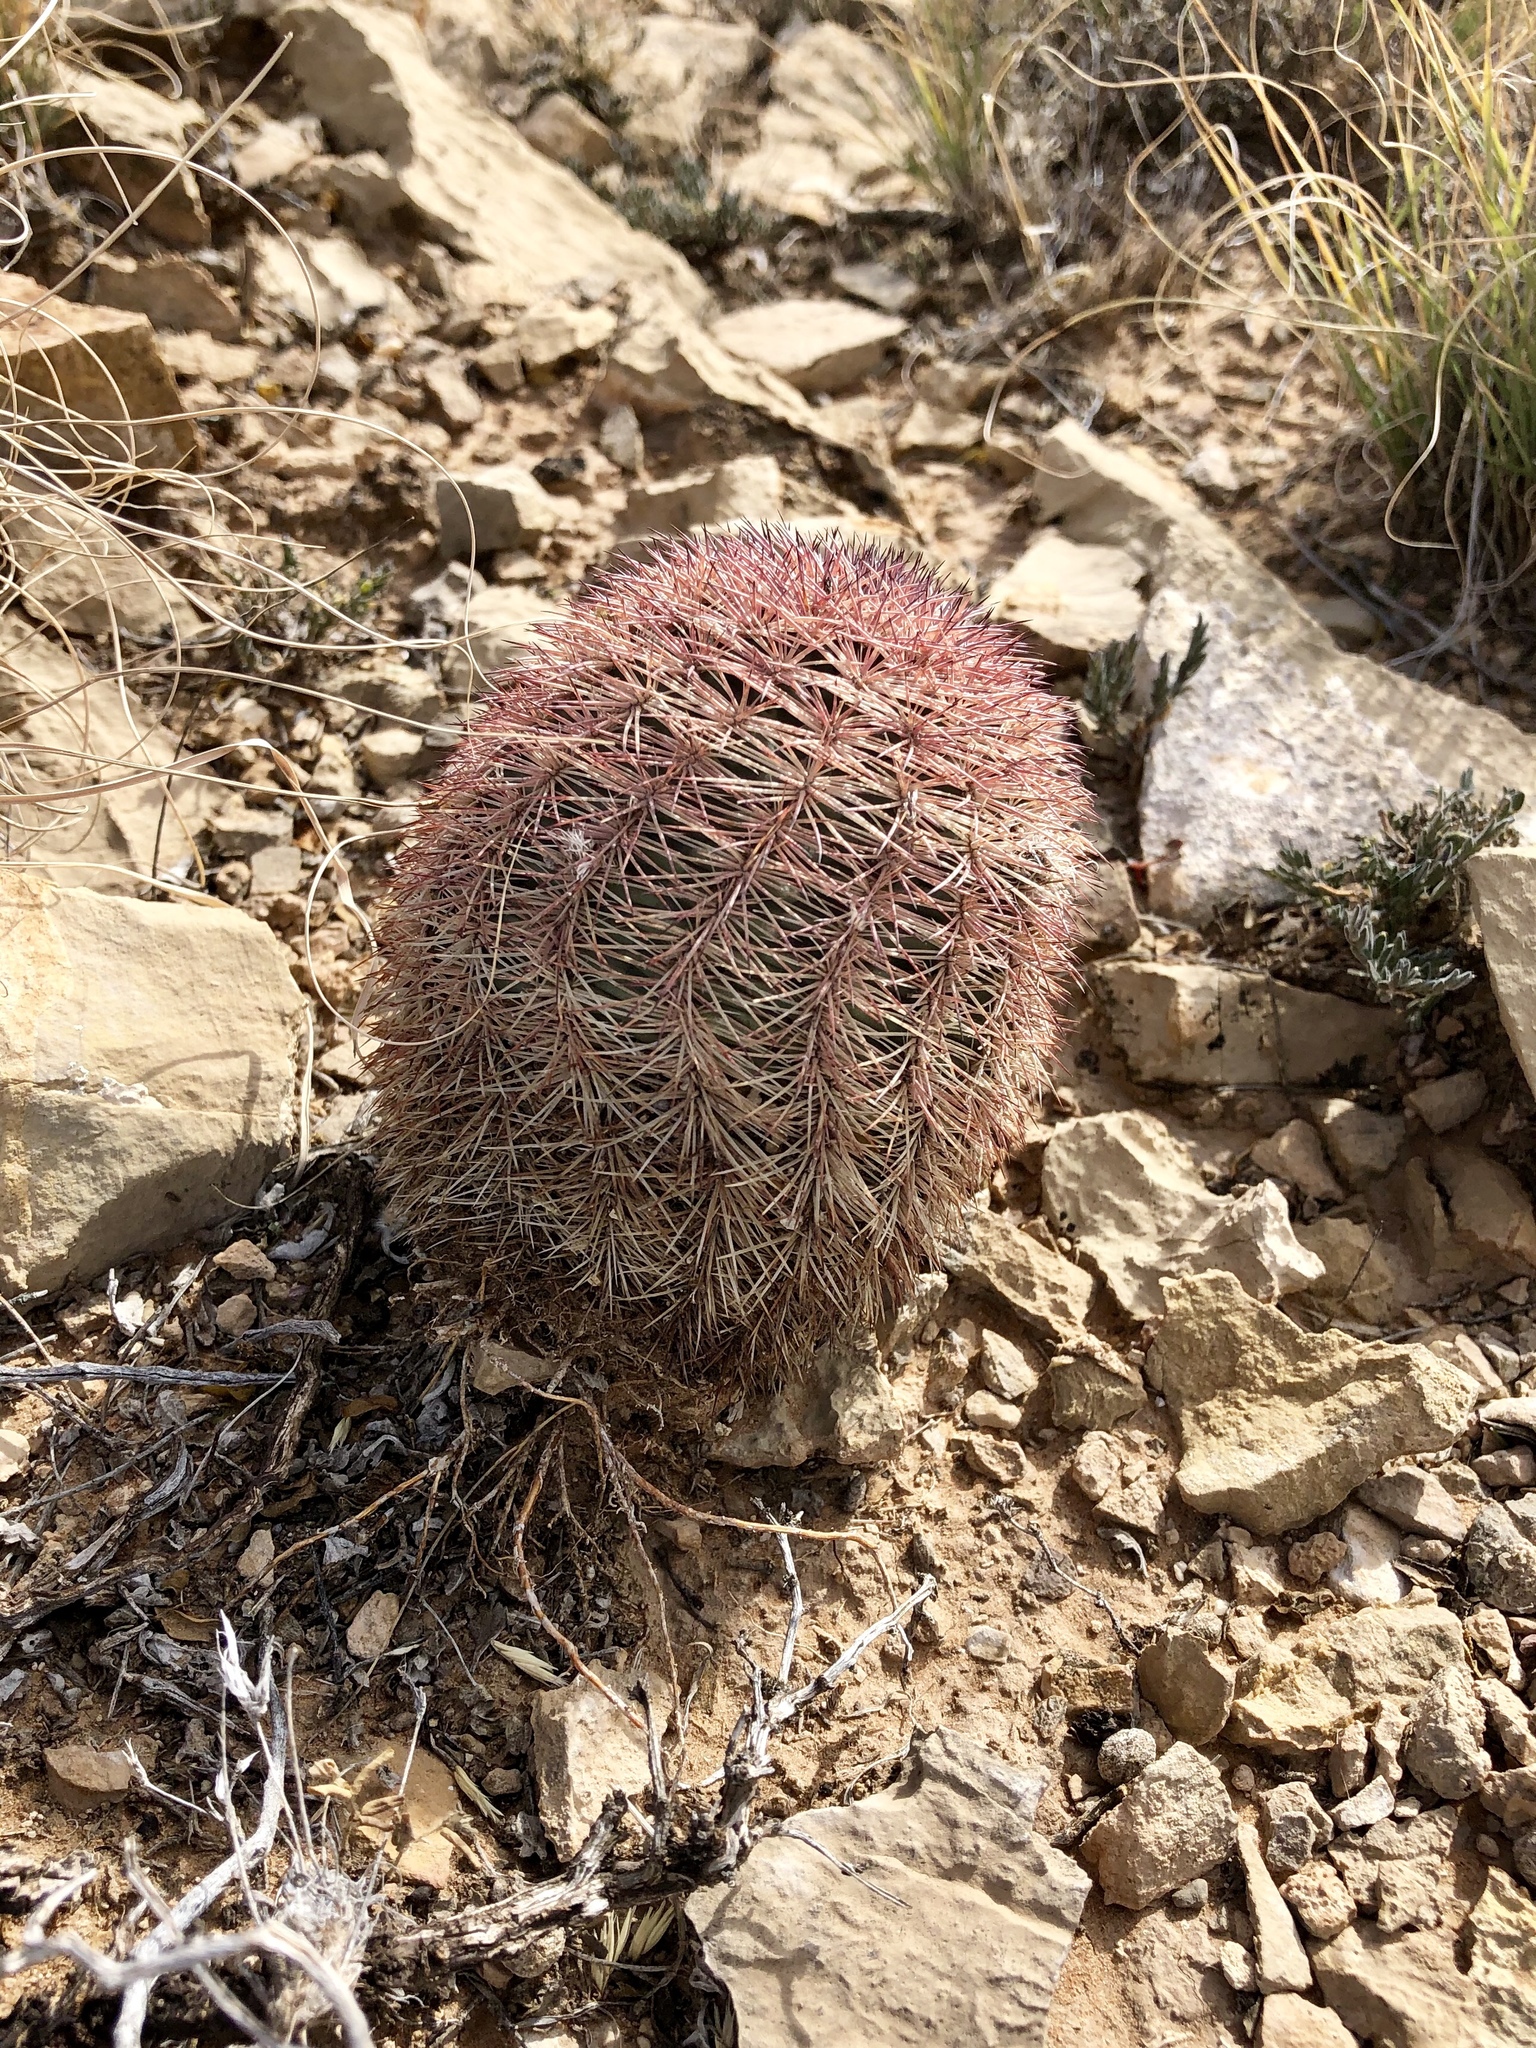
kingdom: Plantae
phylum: Tracheophyta
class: Magnoliopsida
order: Caryophyllales
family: Cactaceae
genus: Echinocereus
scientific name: Echinocereus dasyacanthus
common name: Spiny hedgehog cactus
